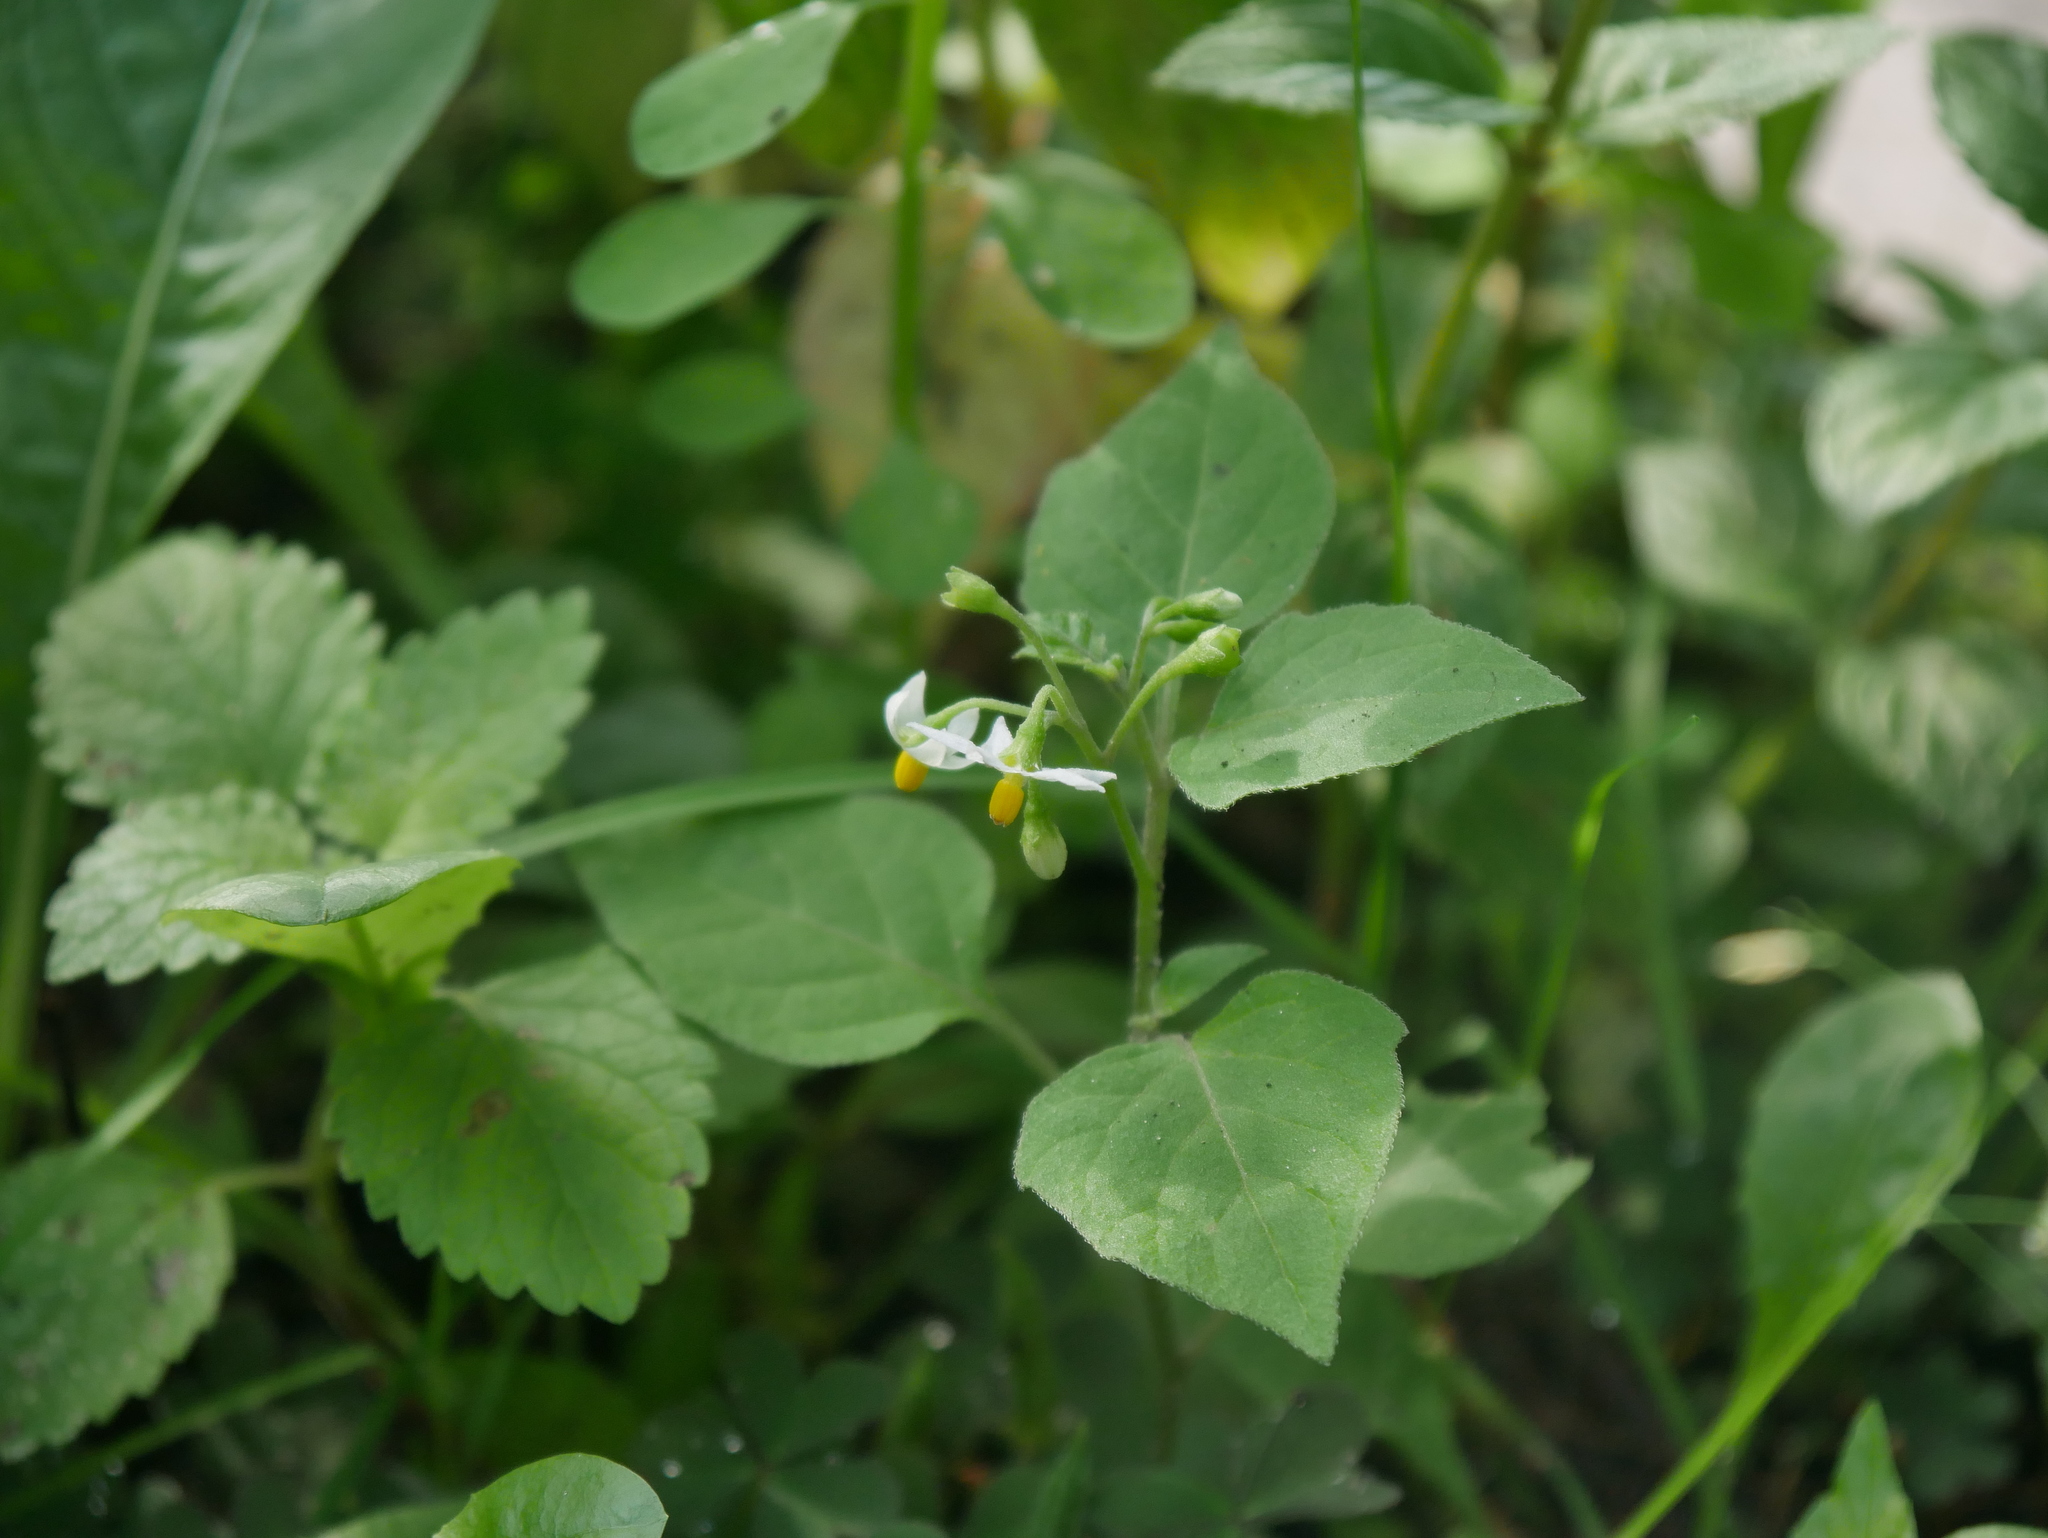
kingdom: Plantae
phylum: Tracheophyta
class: Magnoliopsida
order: Solanales
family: Solanaceae
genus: Solanum
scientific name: Solanum nigrum
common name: Black nightshade
